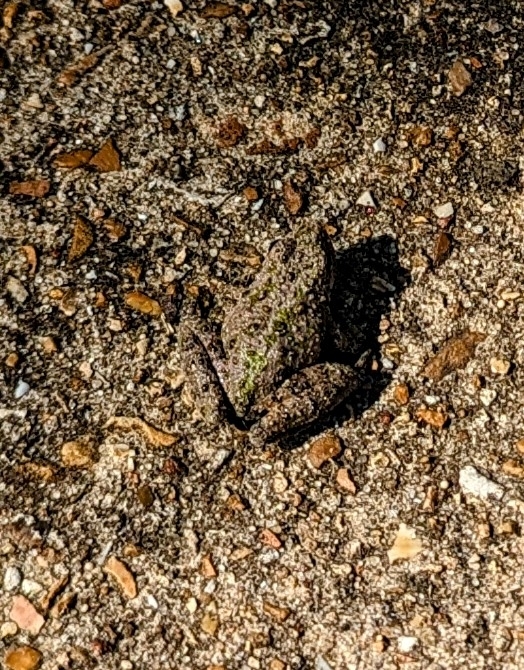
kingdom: Animalia
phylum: Chordata
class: Amphibia
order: Anura
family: Hylidae
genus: Acris
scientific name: Acris blanchardi
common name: Blanchard's cricket frog
